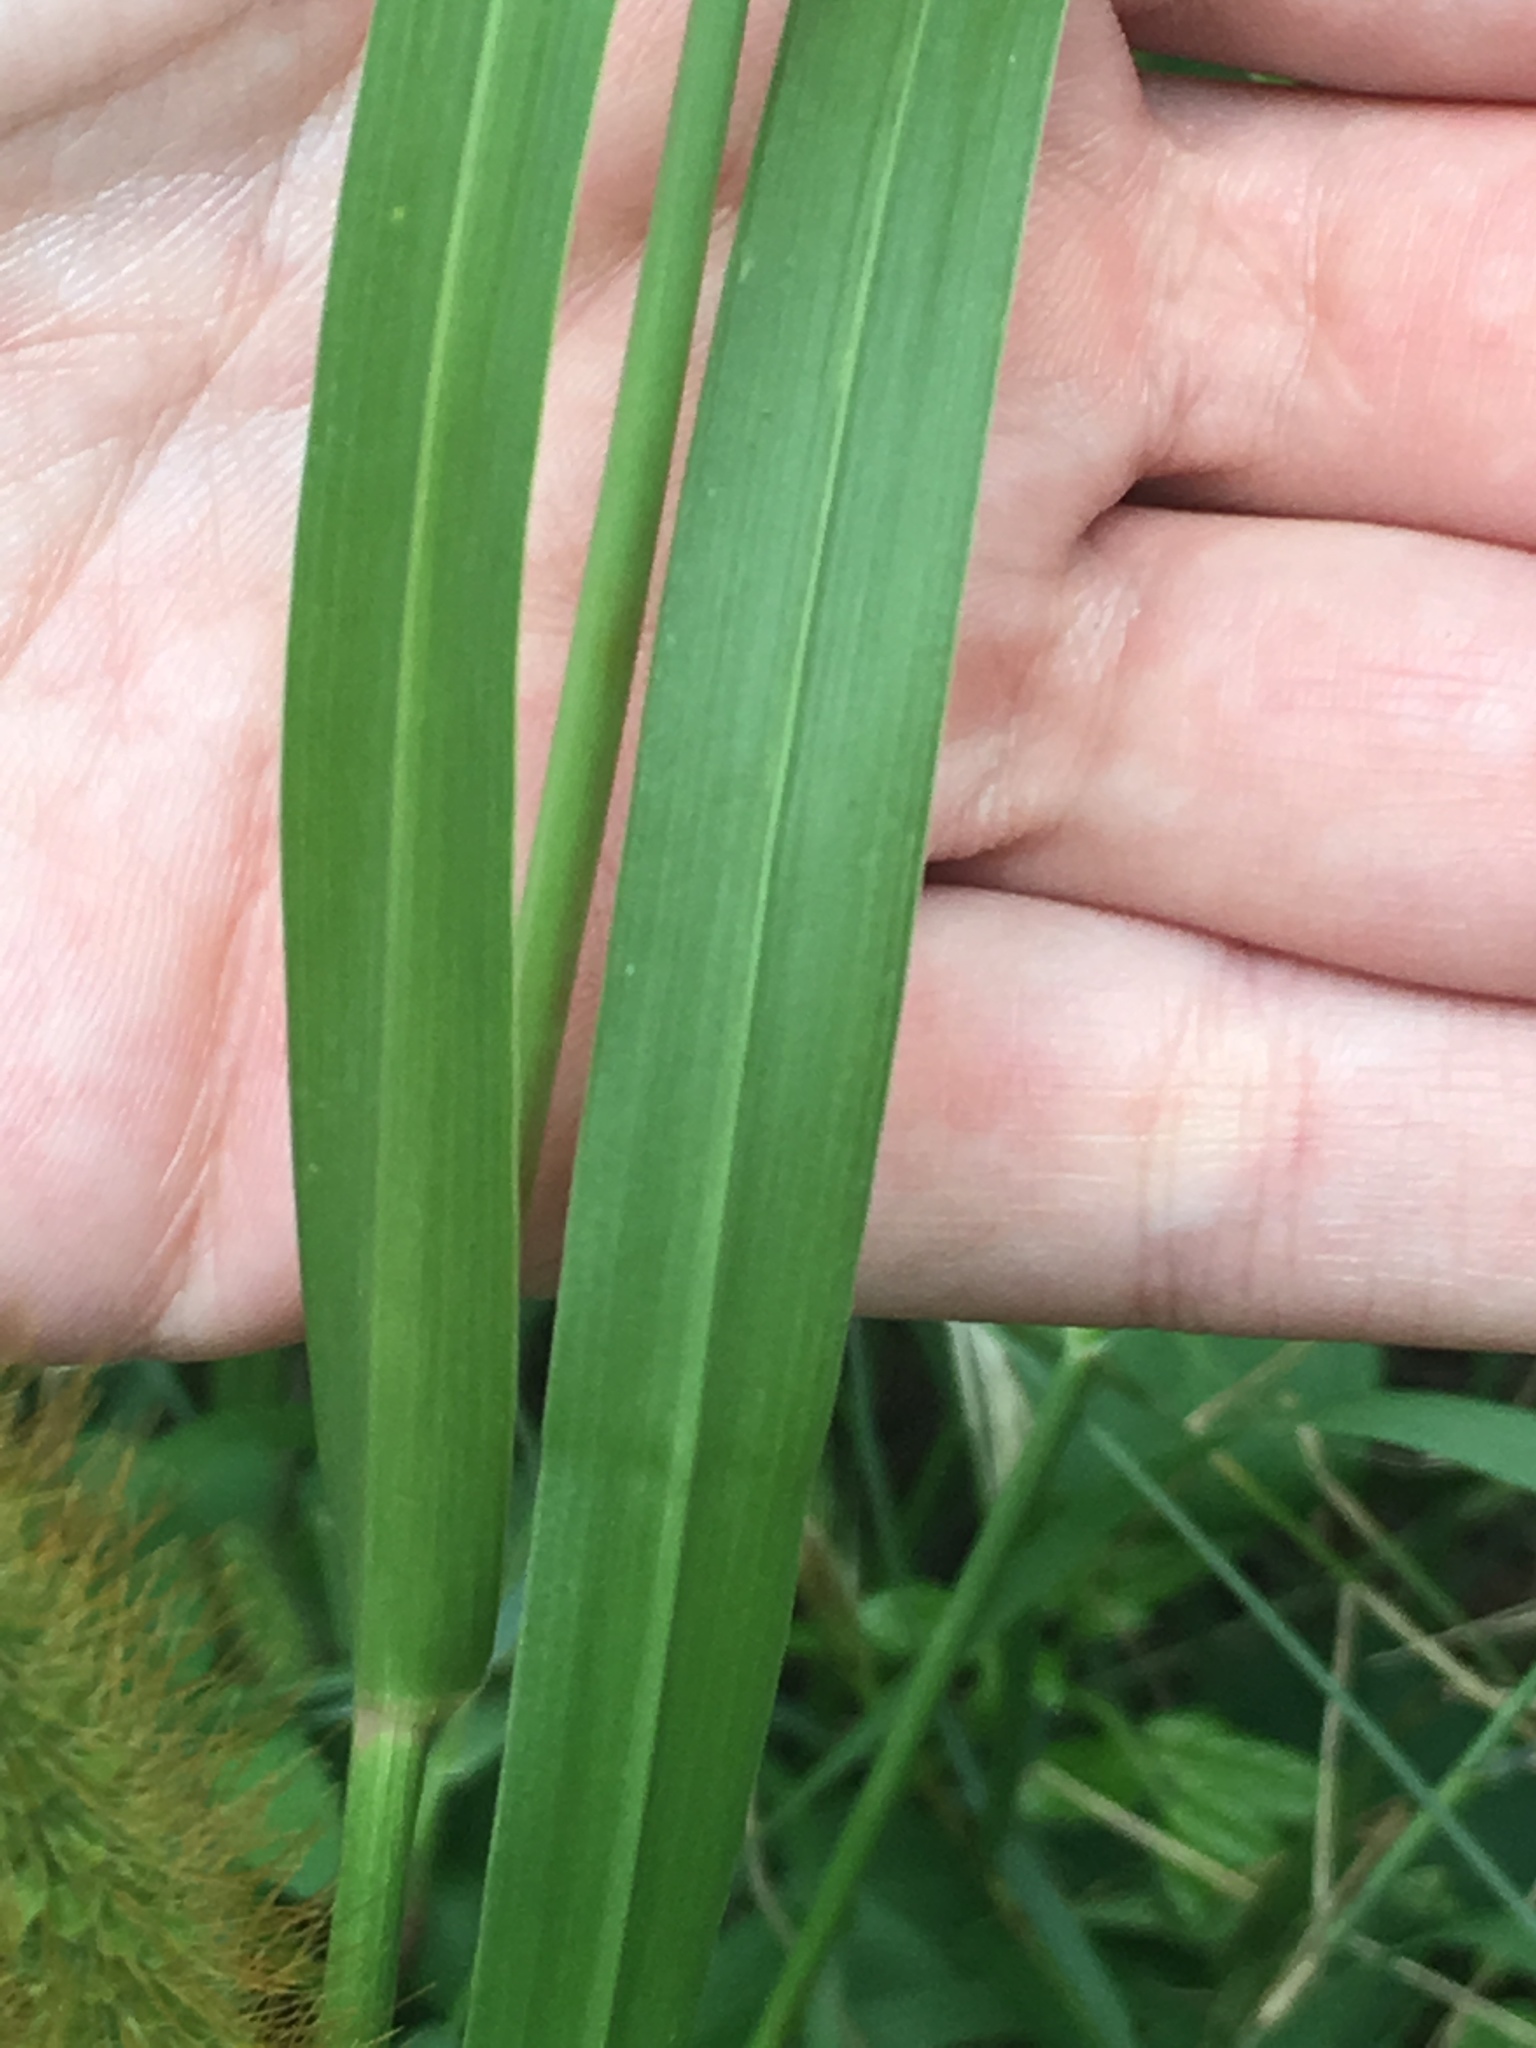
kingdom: Plantae
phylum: Tracheophyta
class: Liliopsida
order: Poales
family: Poaceae
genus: Setaria
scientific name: Setaria pumila
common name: Yellow bristle-grass
